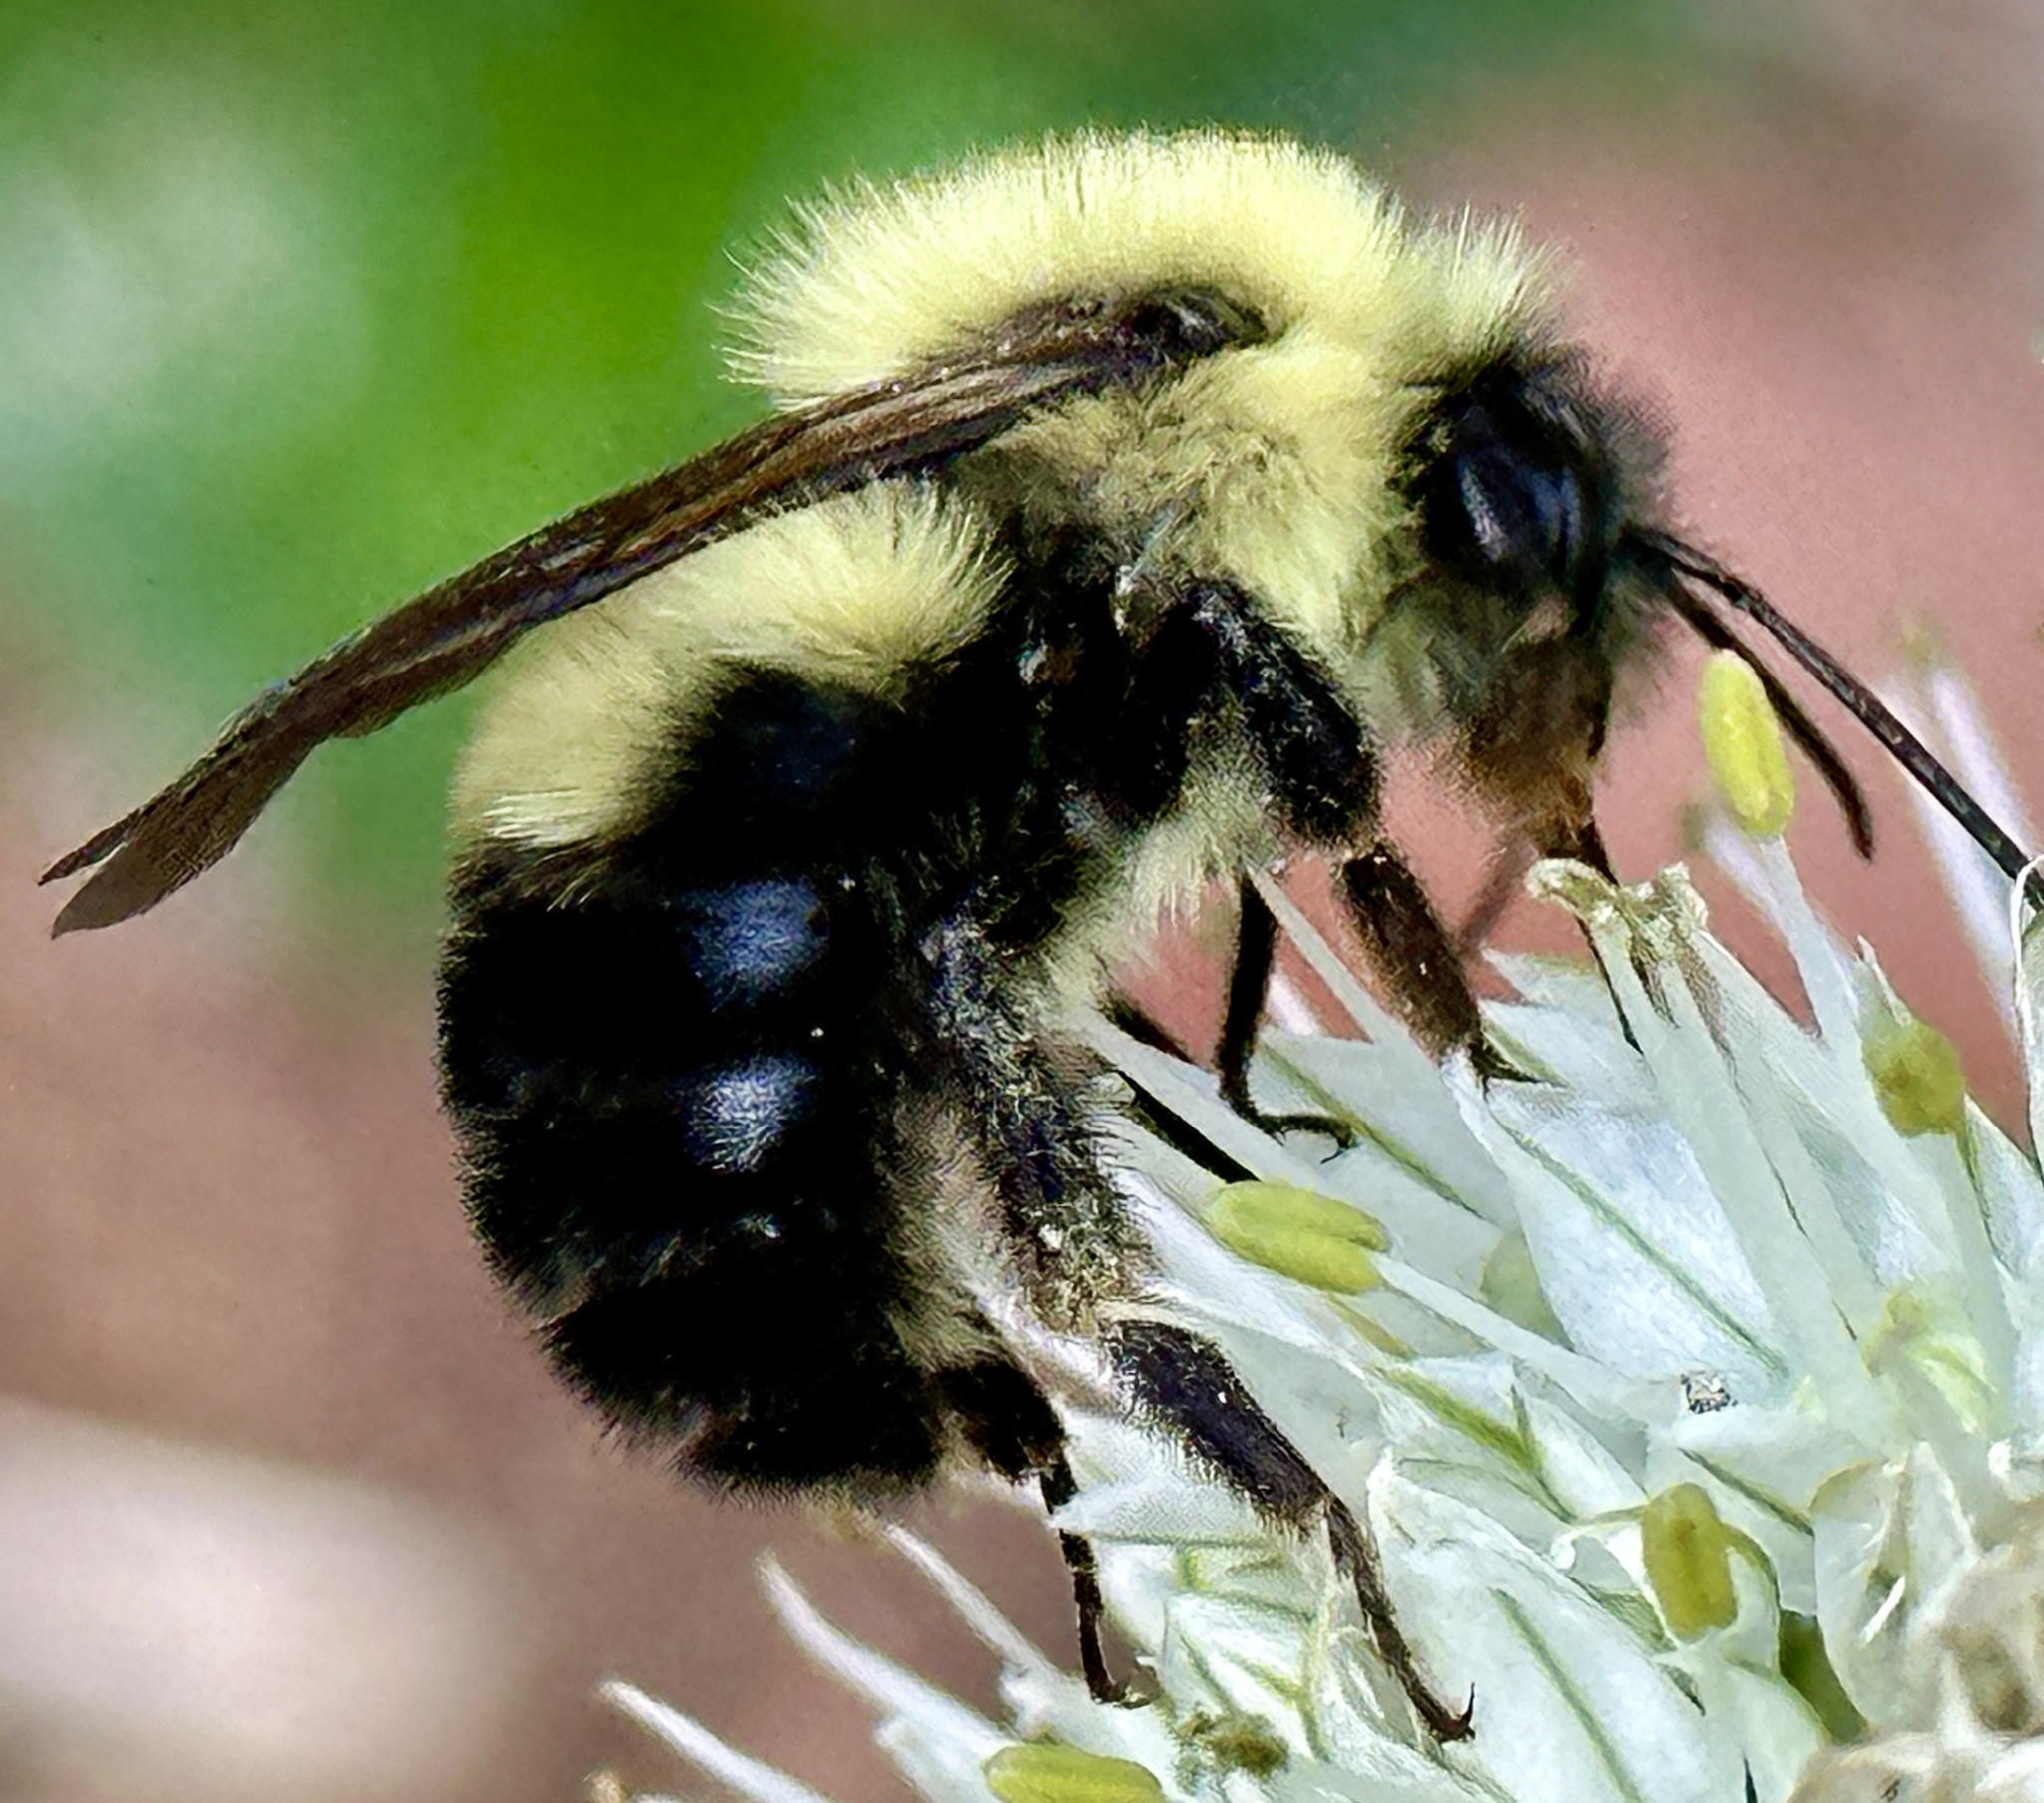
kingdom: Animalia
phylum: Arthropoda
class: Insecta
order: Hymenoptera
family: Apidae
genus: Bombus
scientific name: Bombus bimaculatus
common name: Two-spotted bumble bee
